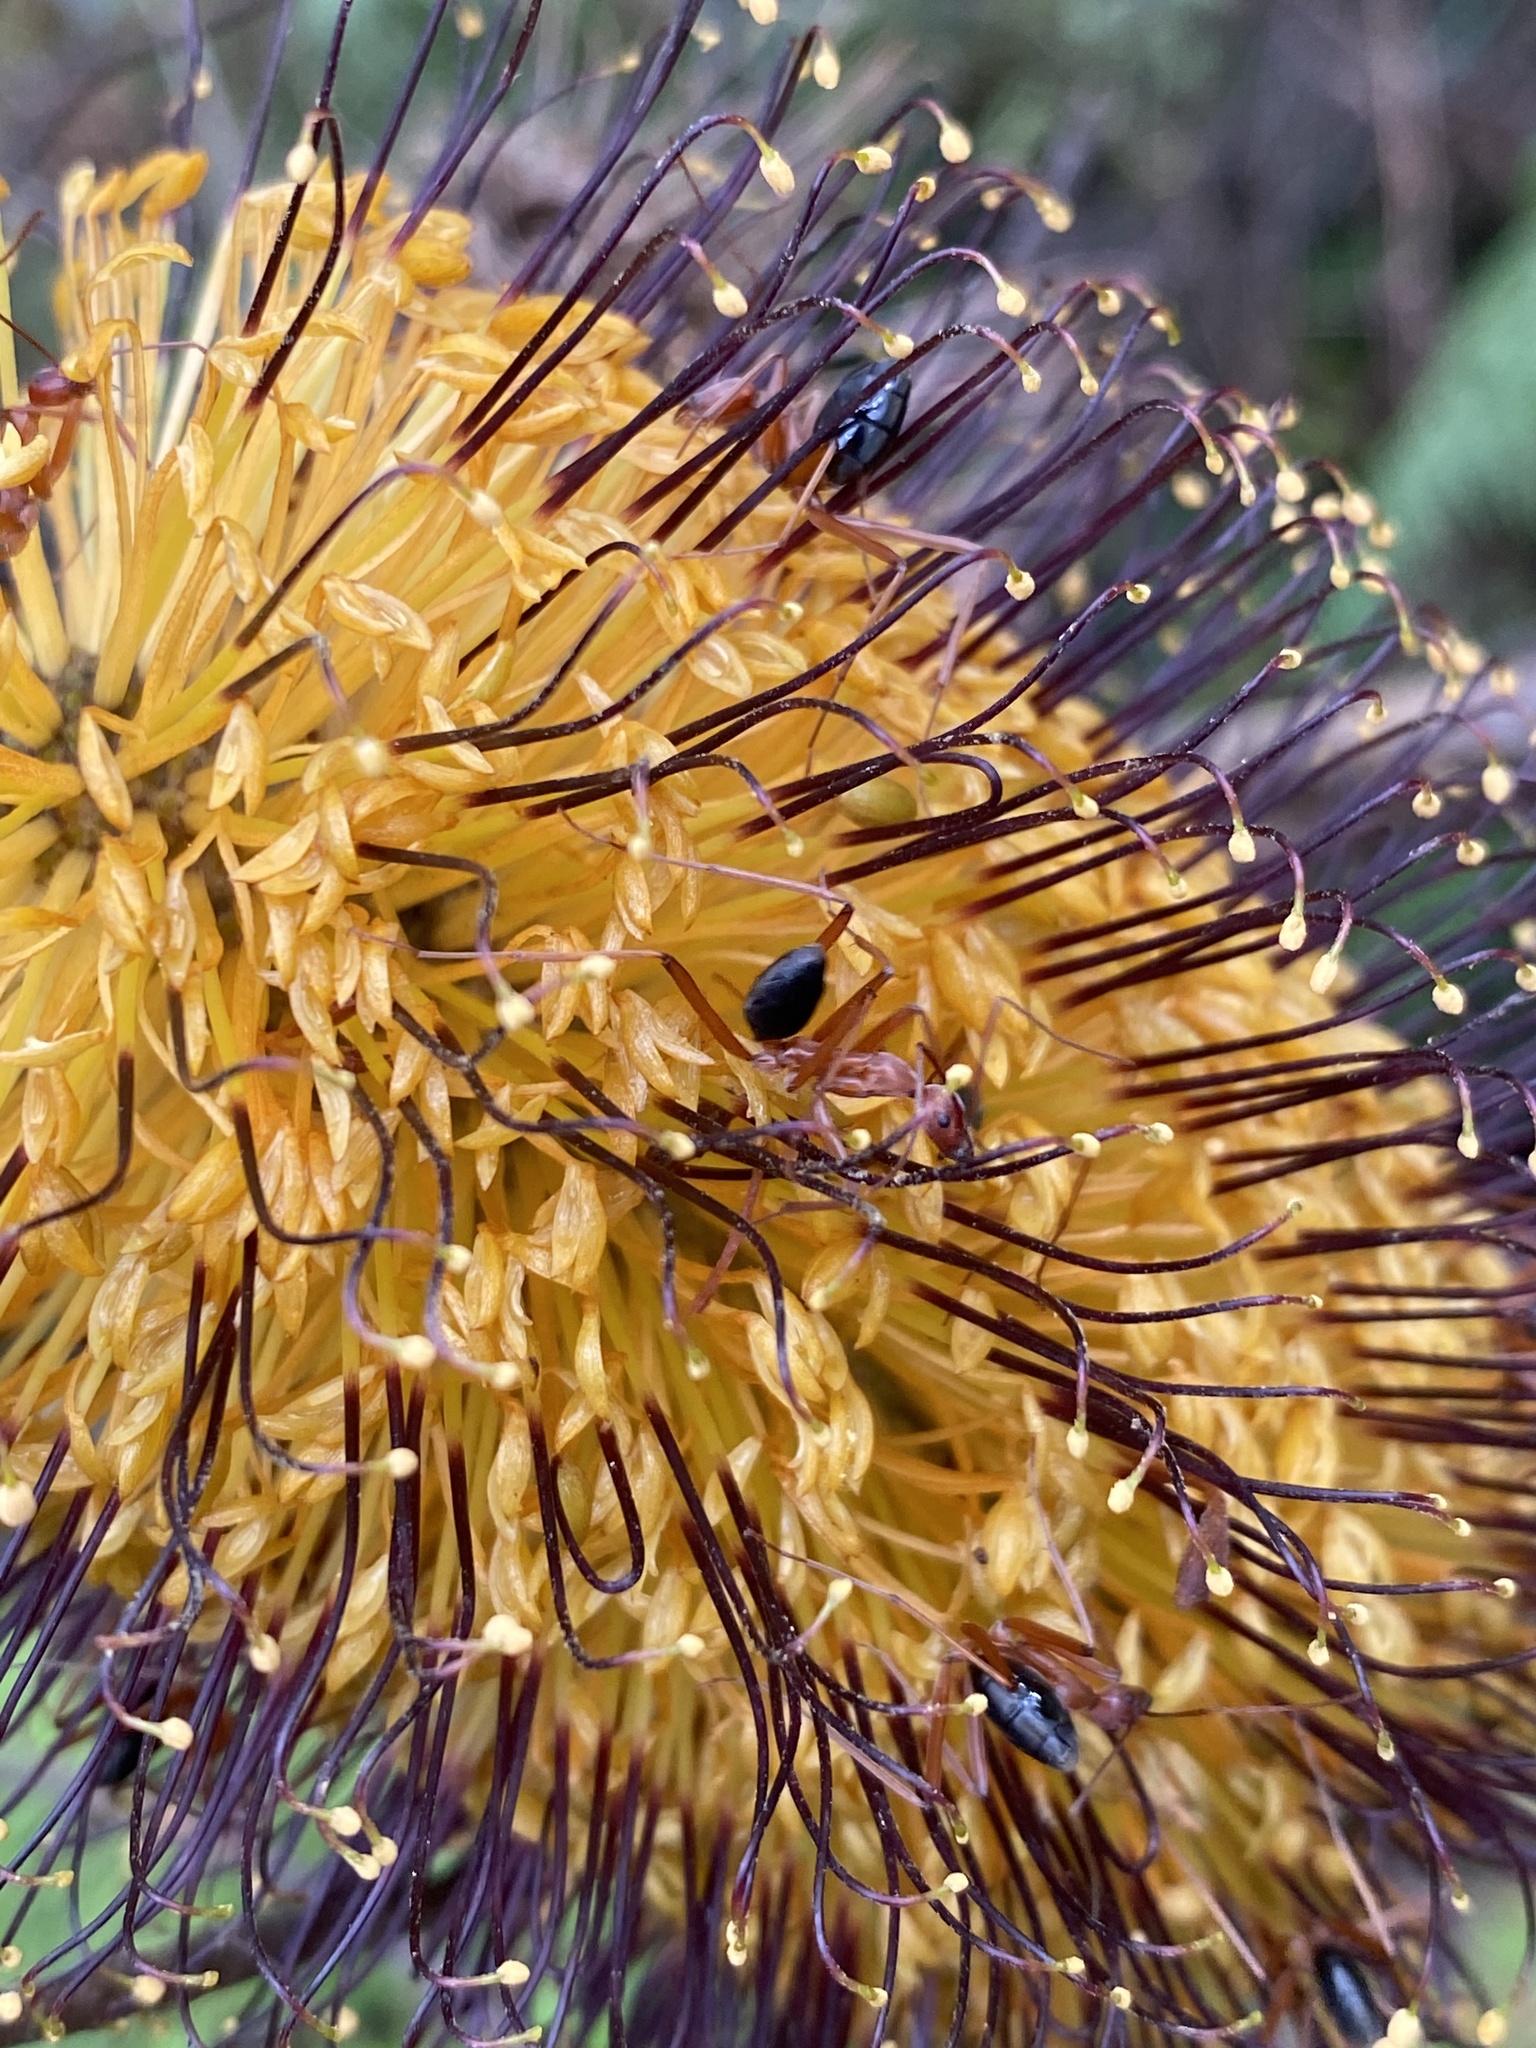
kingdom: Animalia
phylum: Arthropoda
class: Insecta
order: Hymenoptera
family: Formicidae
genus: Leptomyrmex
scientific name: Leptomyrmex nigriventris
